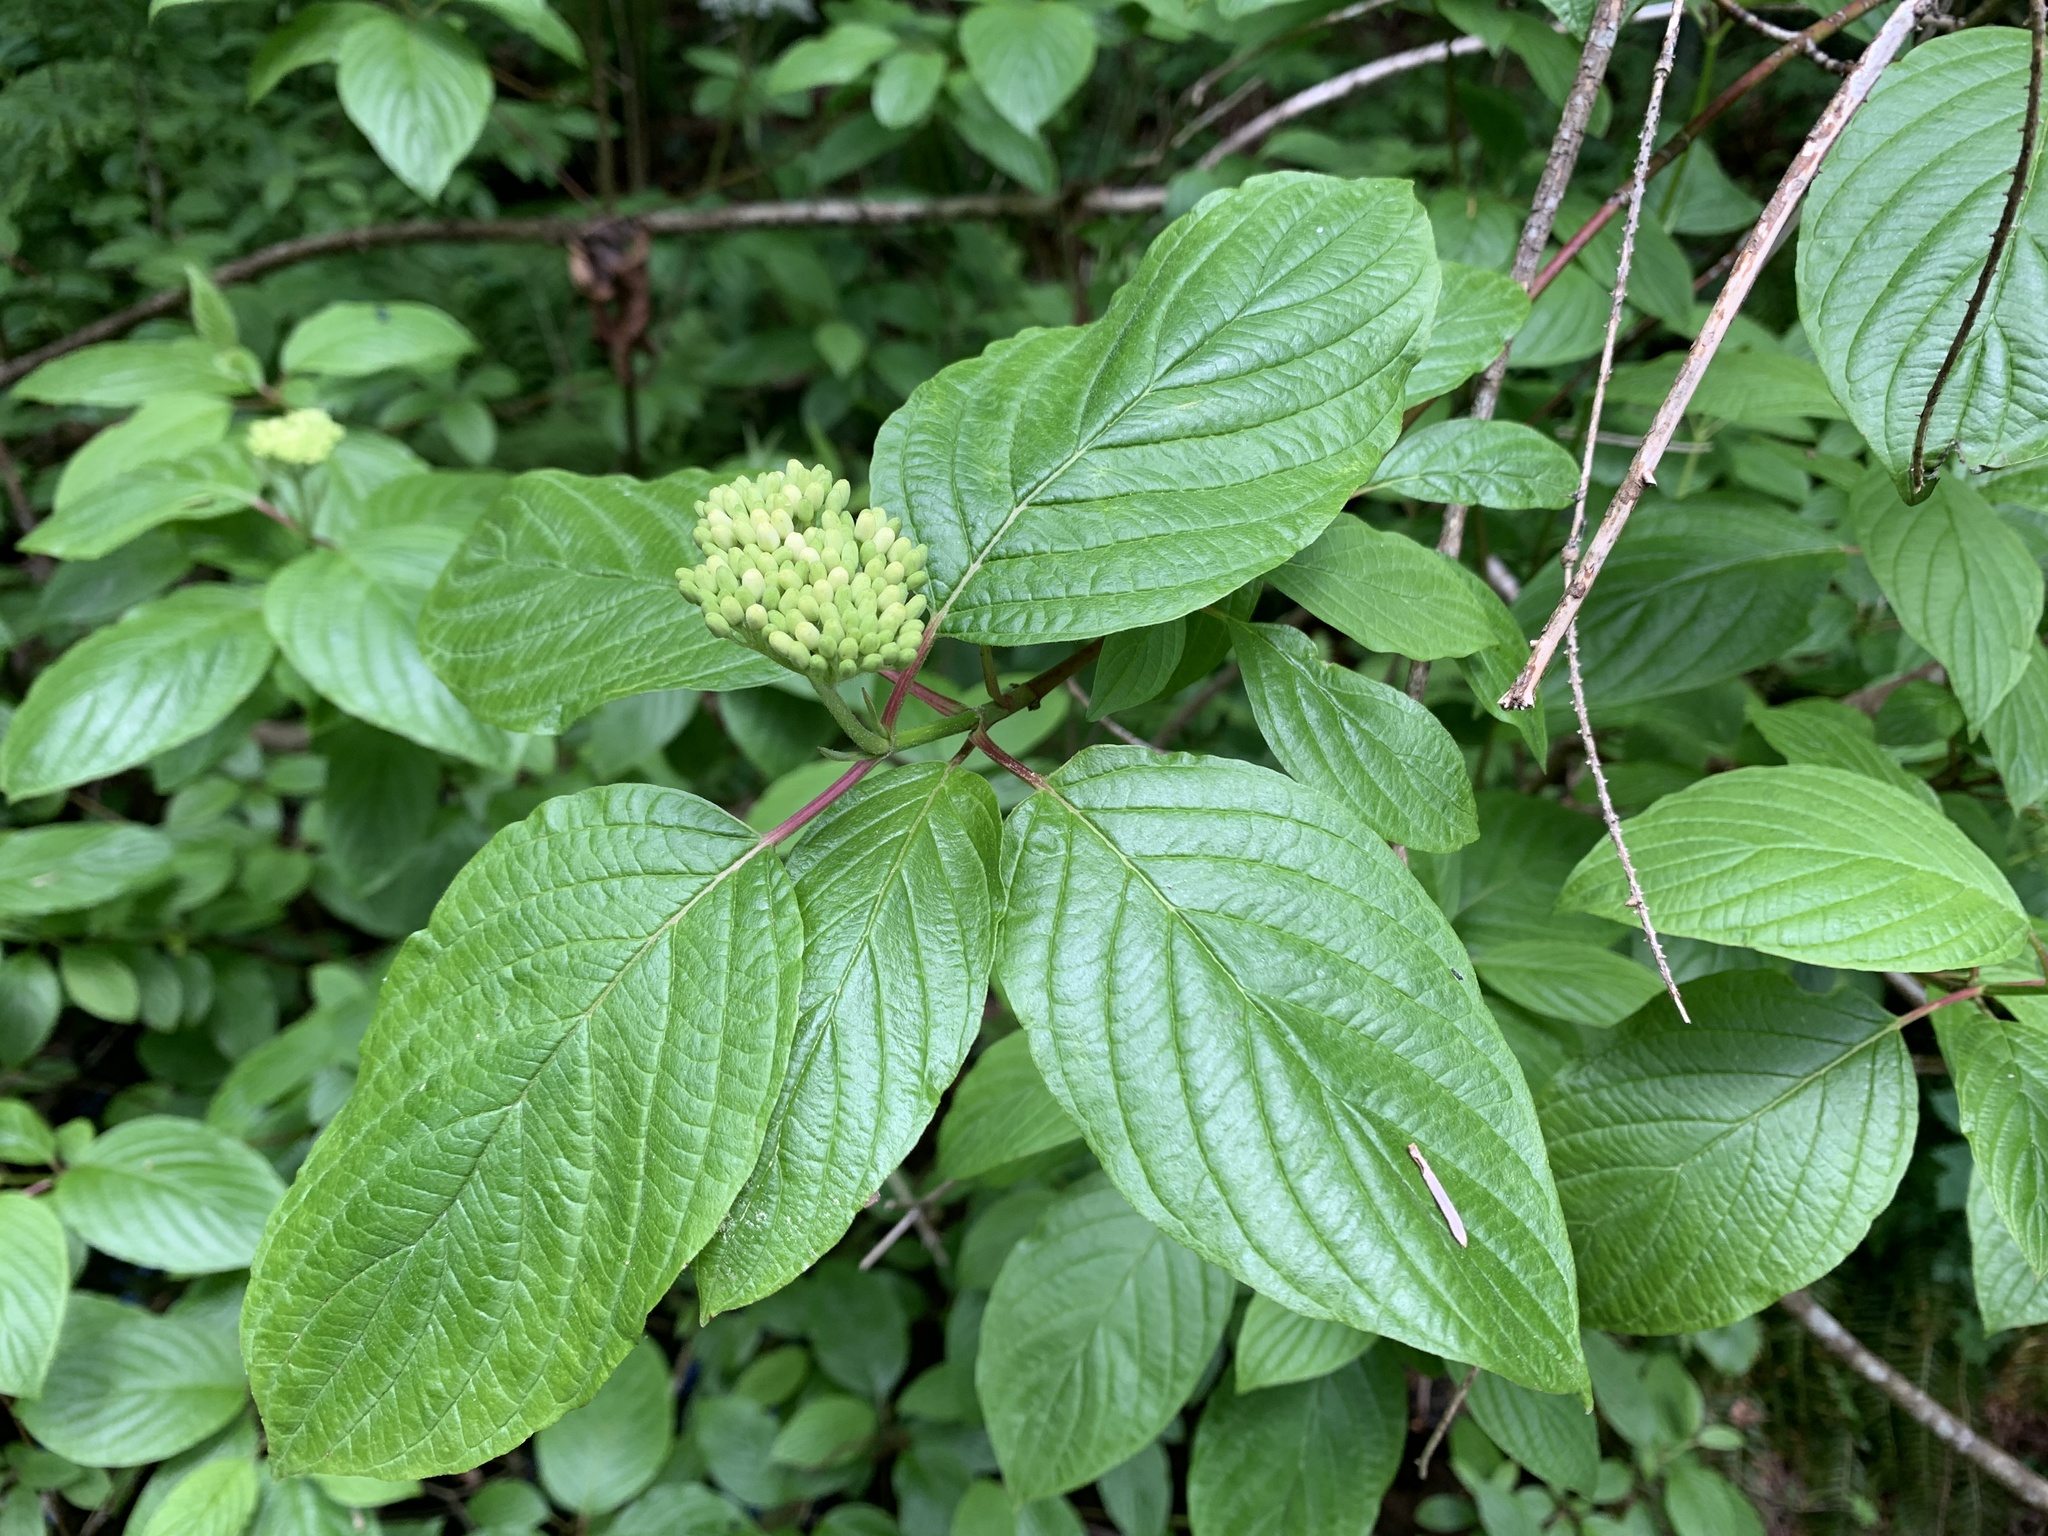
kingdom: Plantae
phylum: Tracheophyta
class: Magnoliopsida
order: Cornales
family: Cornaceae
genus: Cornus
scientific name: Cornus sericea
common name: Red-osier dogwood
